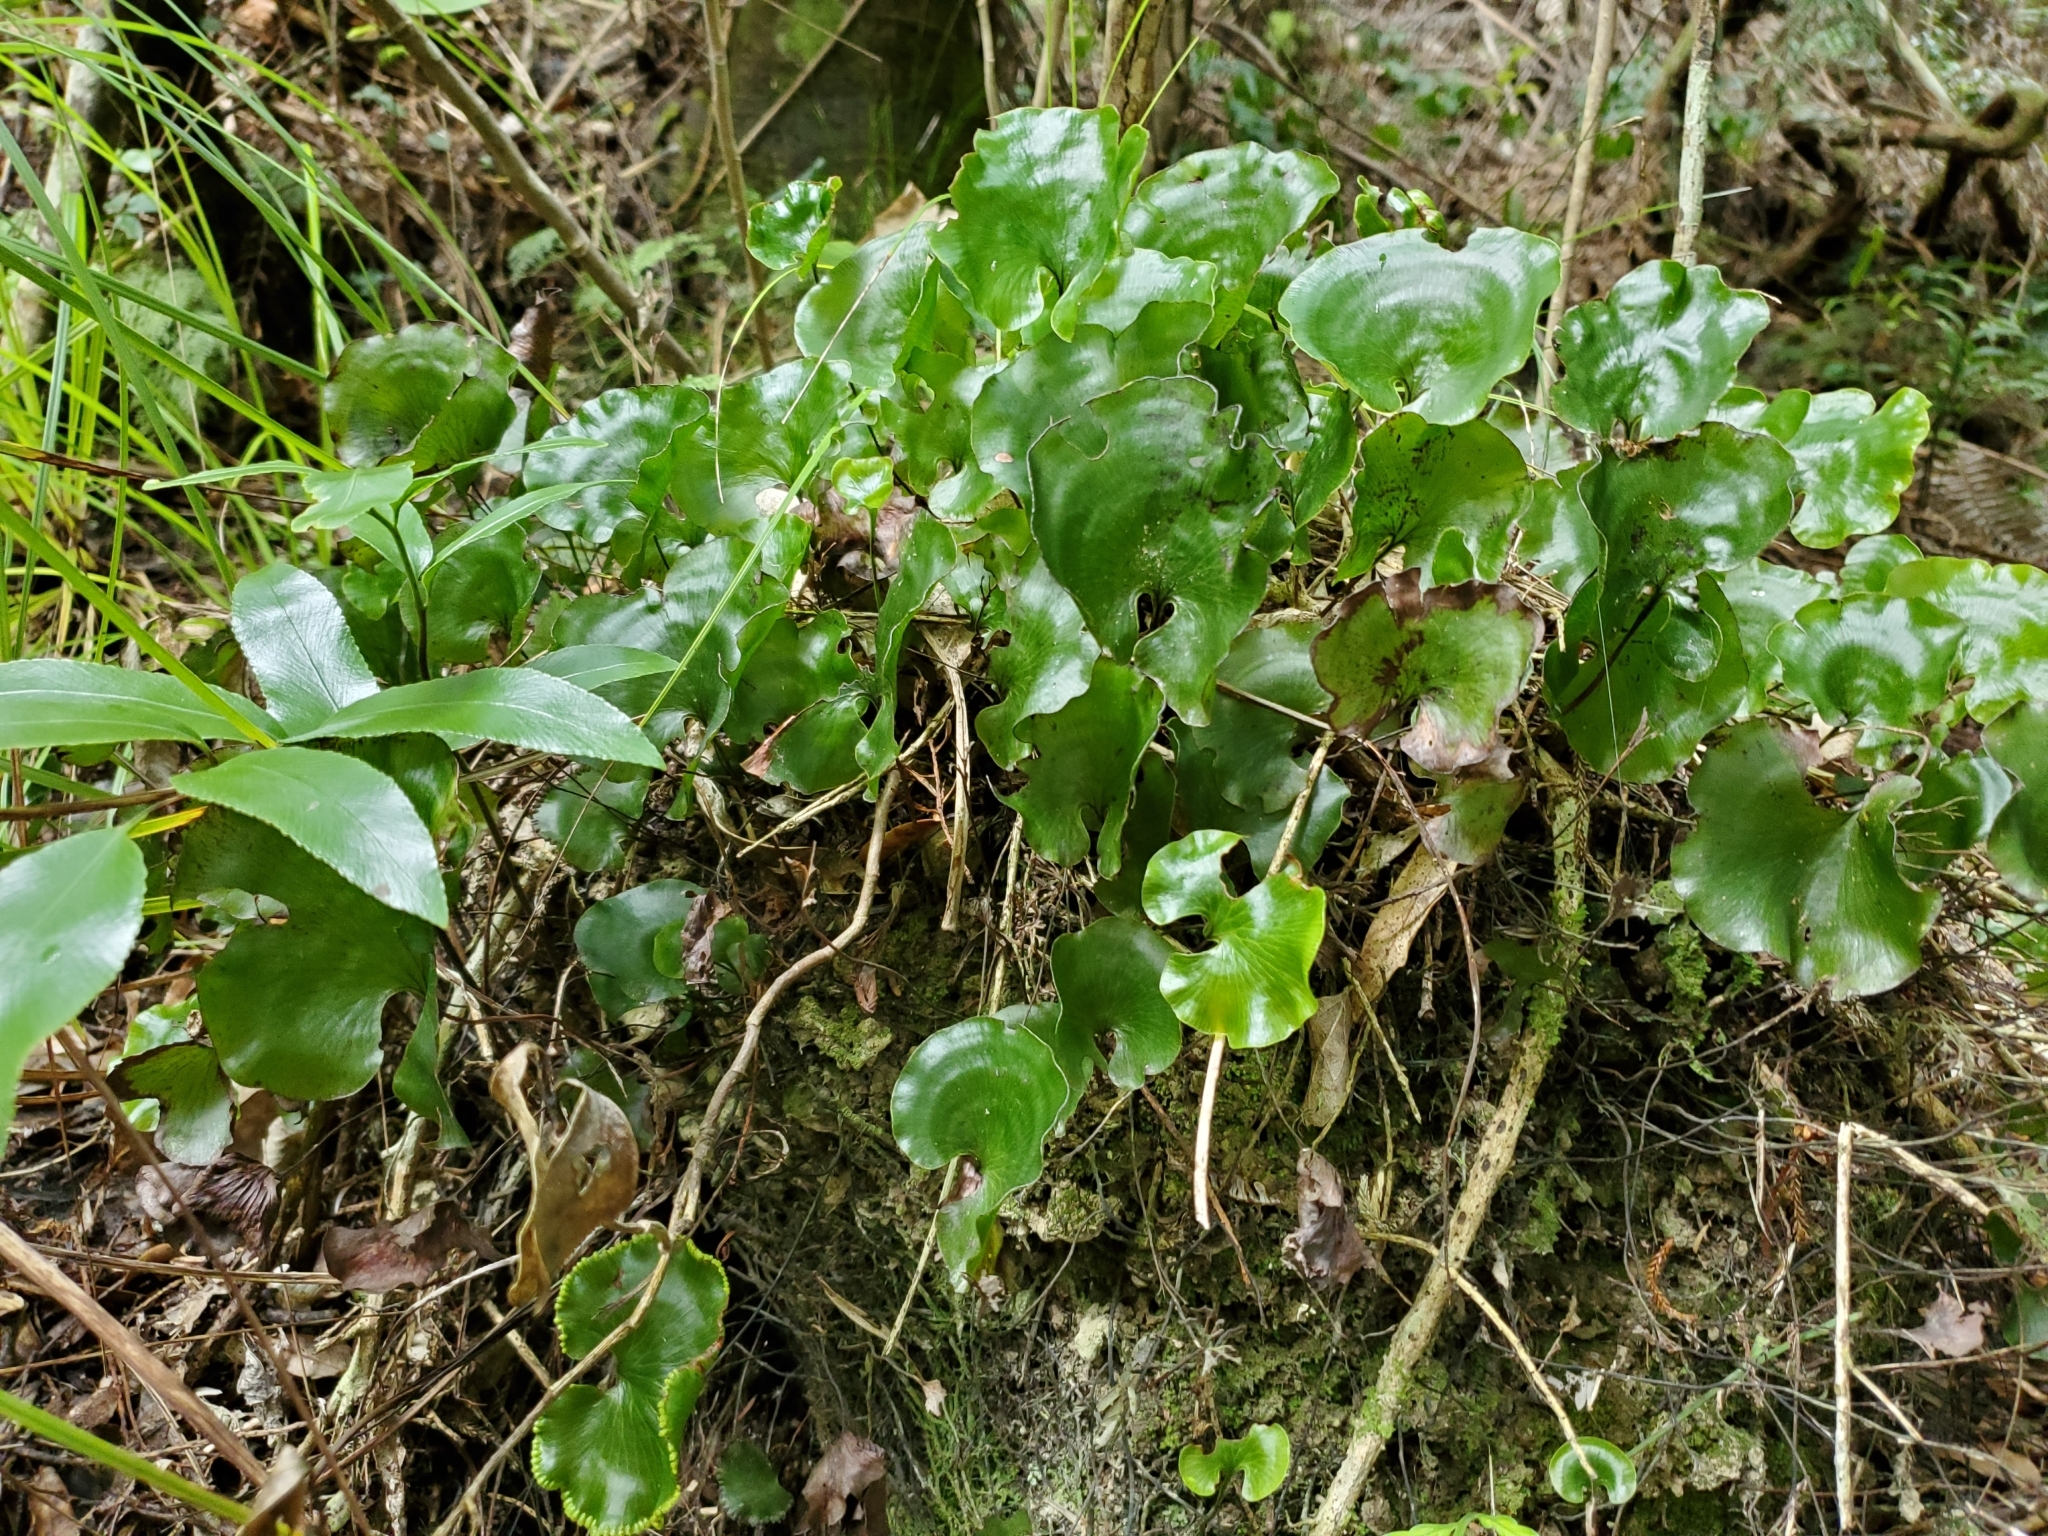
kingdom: Plantae
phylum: Tracheophyta
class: Polypodiopsida
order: Hymenophyllales
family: Hymenophyllaceae
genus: Hymenophyllum
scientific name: Hymenophyllum nephrophyllum
